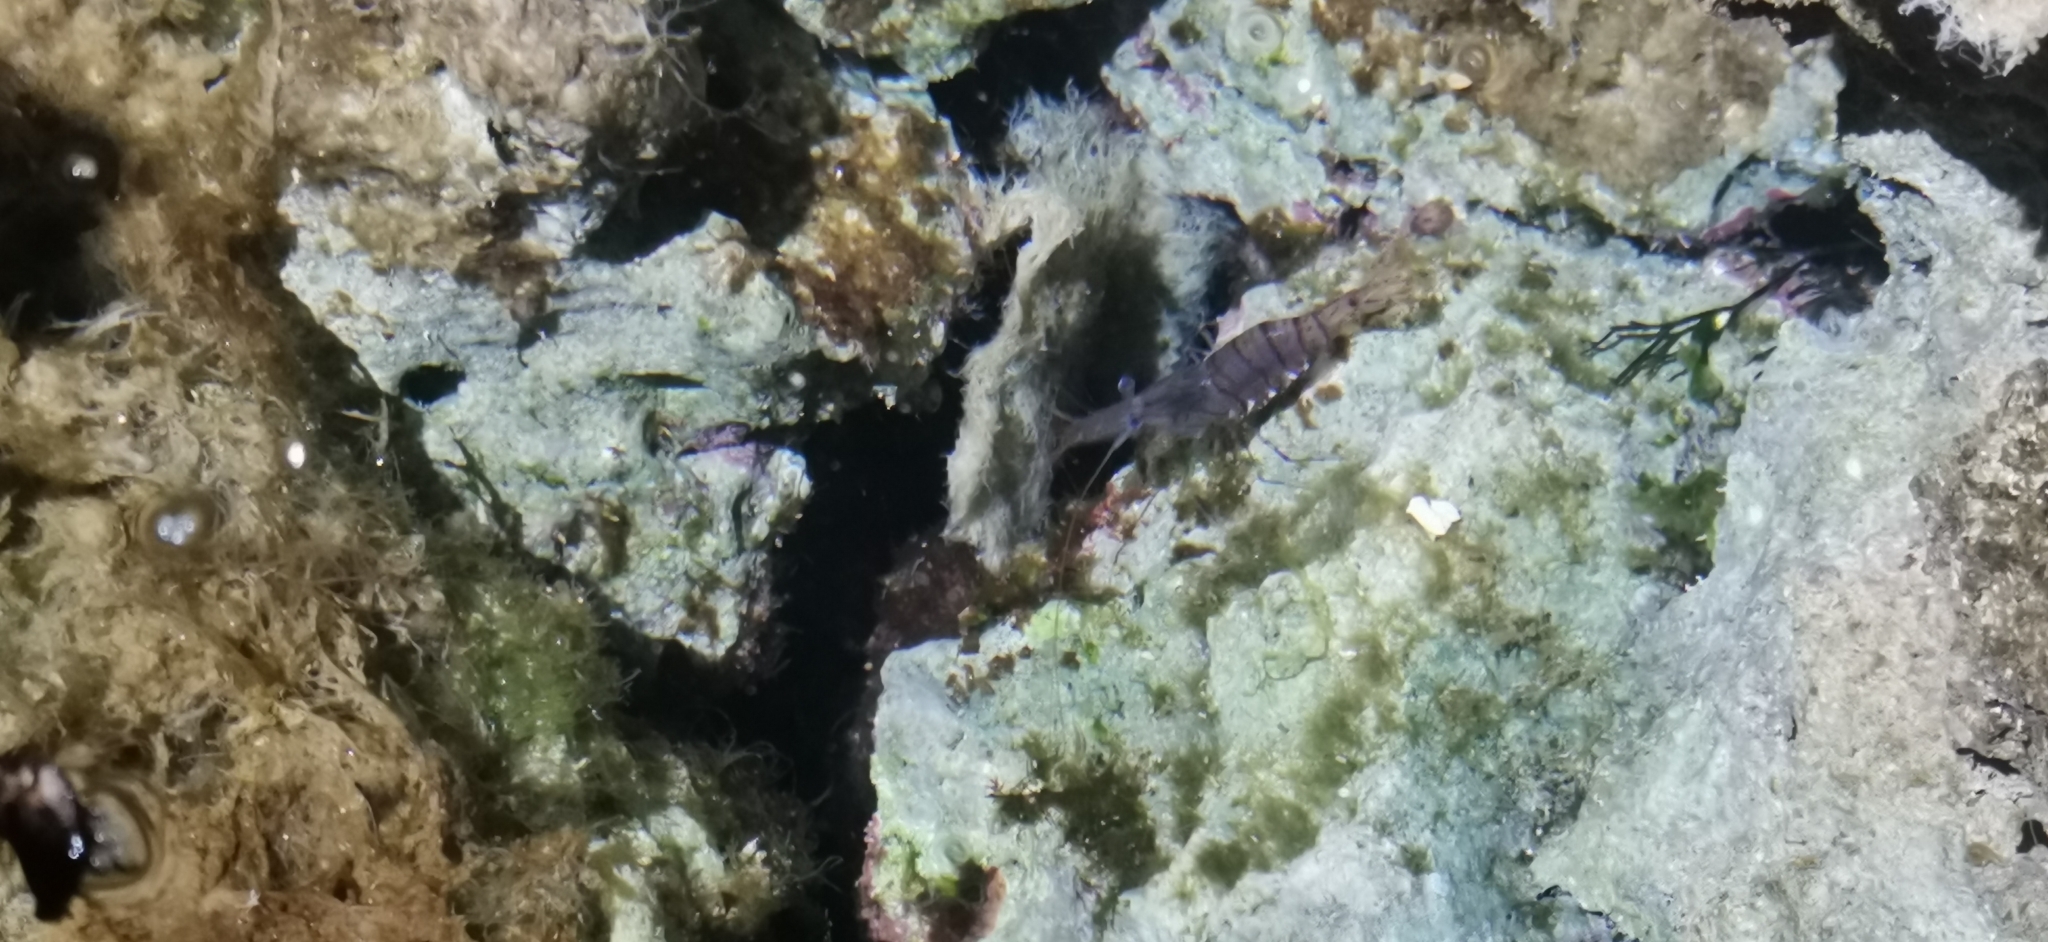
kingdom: Animalia
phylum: Arthropoda
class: Malacostraca
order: Decapoda
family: Palaemonidae
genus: Palaemon
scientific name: Palaemon serratus
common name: Common prawn
